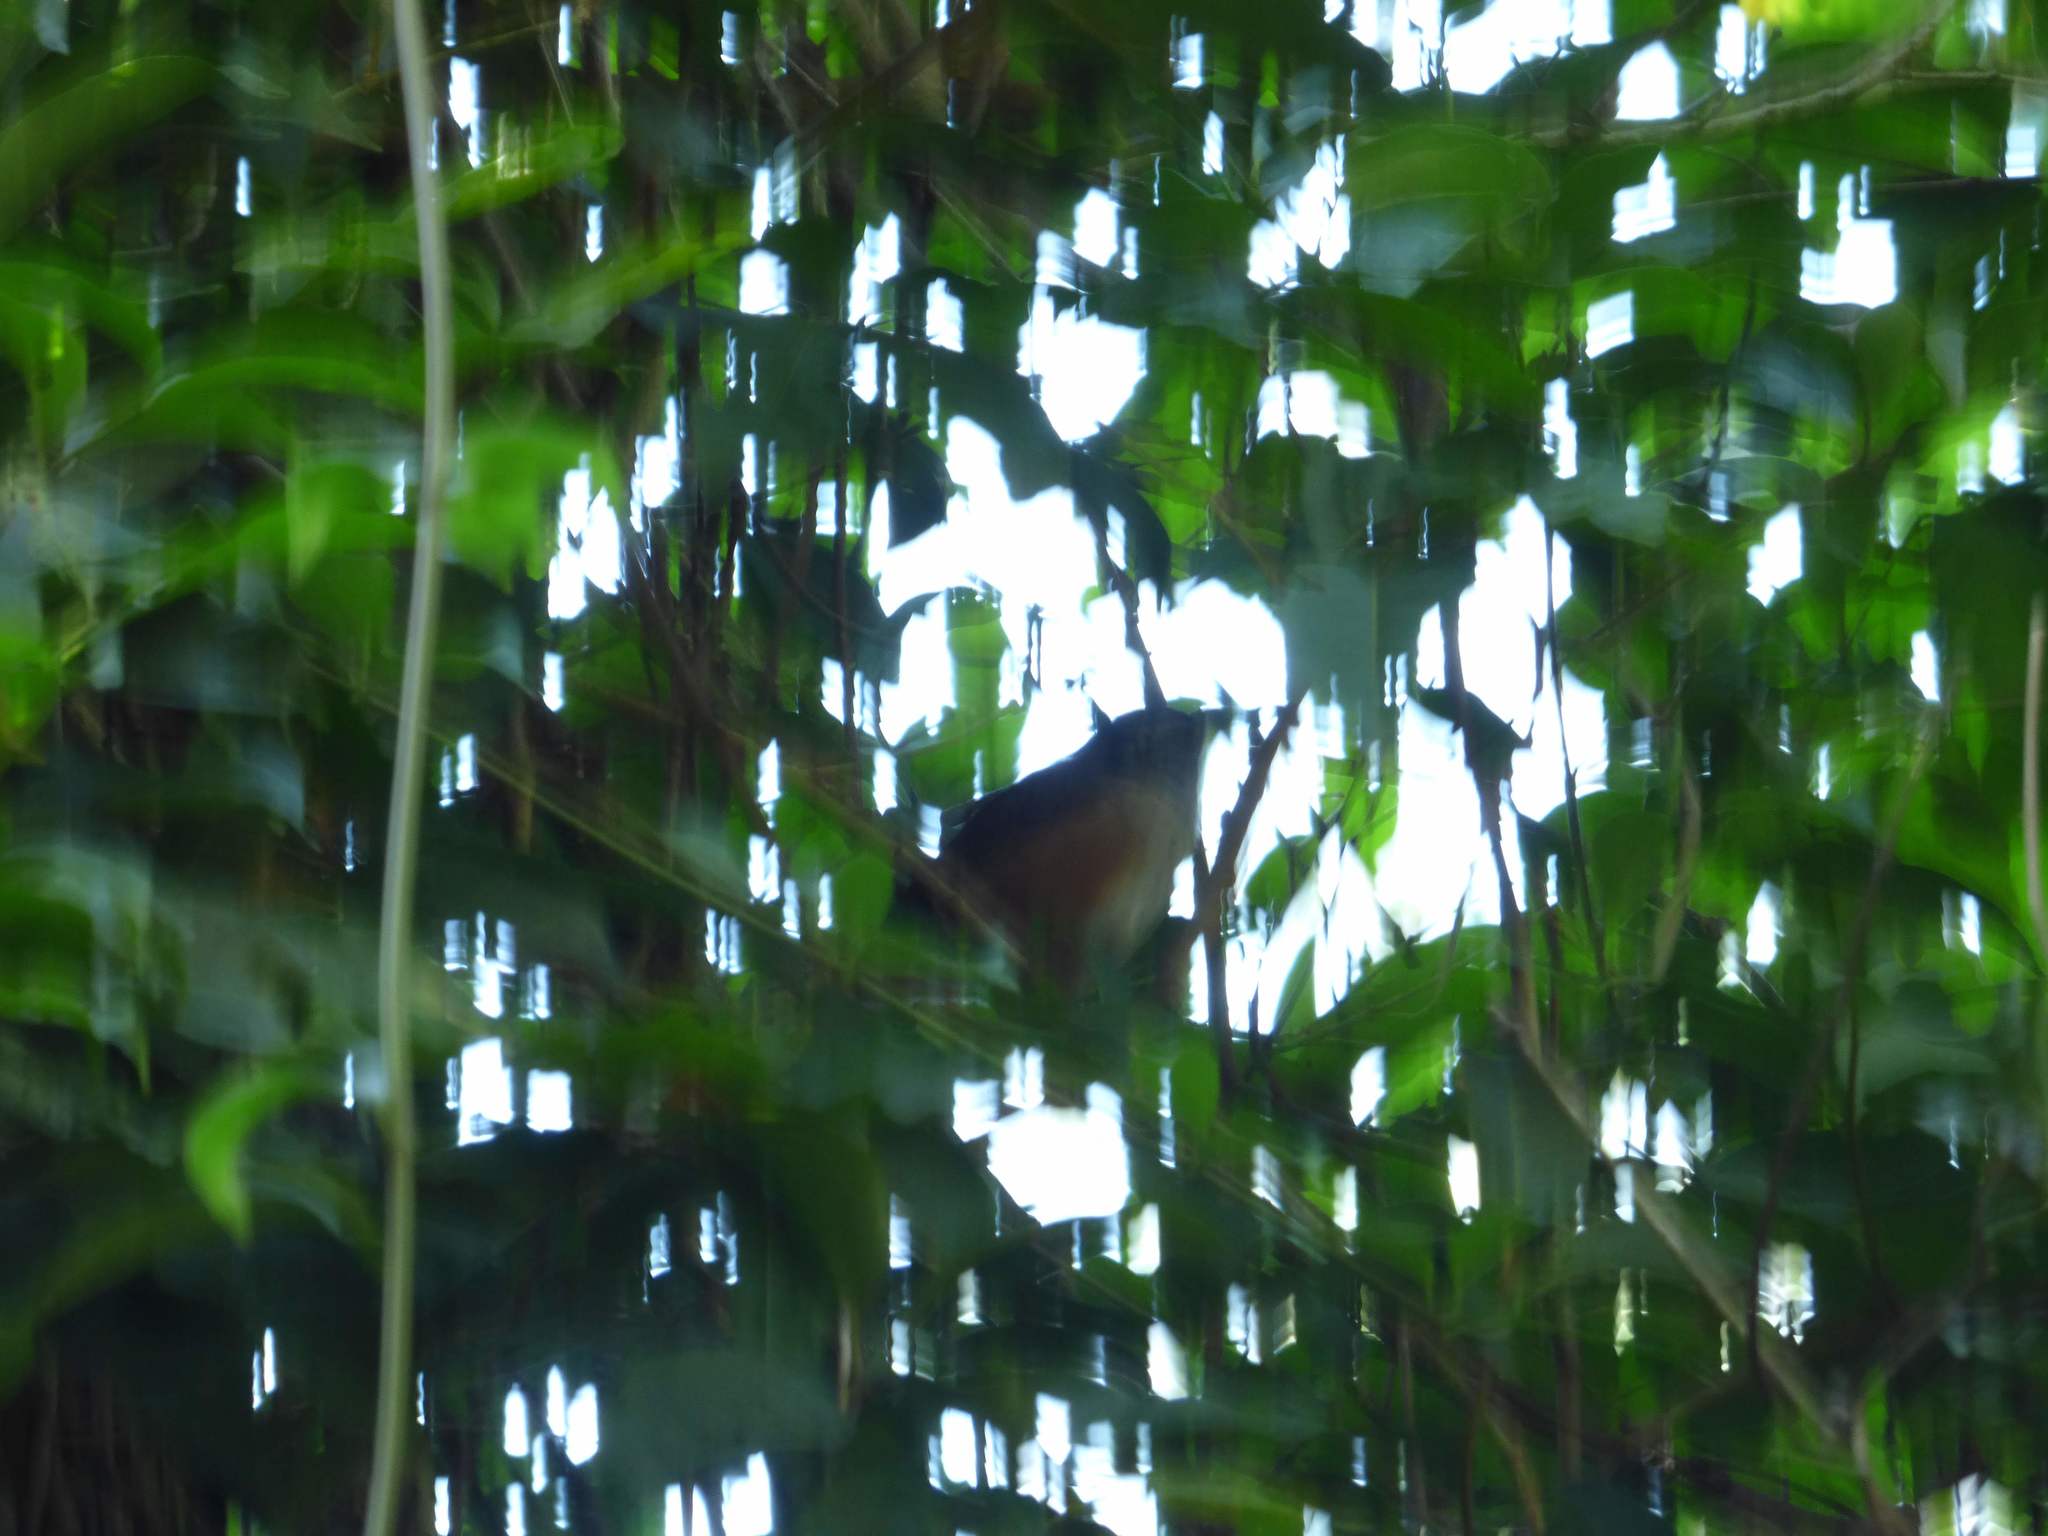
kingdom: Animalia
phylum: Chordata
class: Aves
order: Passeriformes
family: Thraupidae
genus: Microspingus
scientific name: Microspingus cabanisi
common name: Gray-throated warbling-finch
